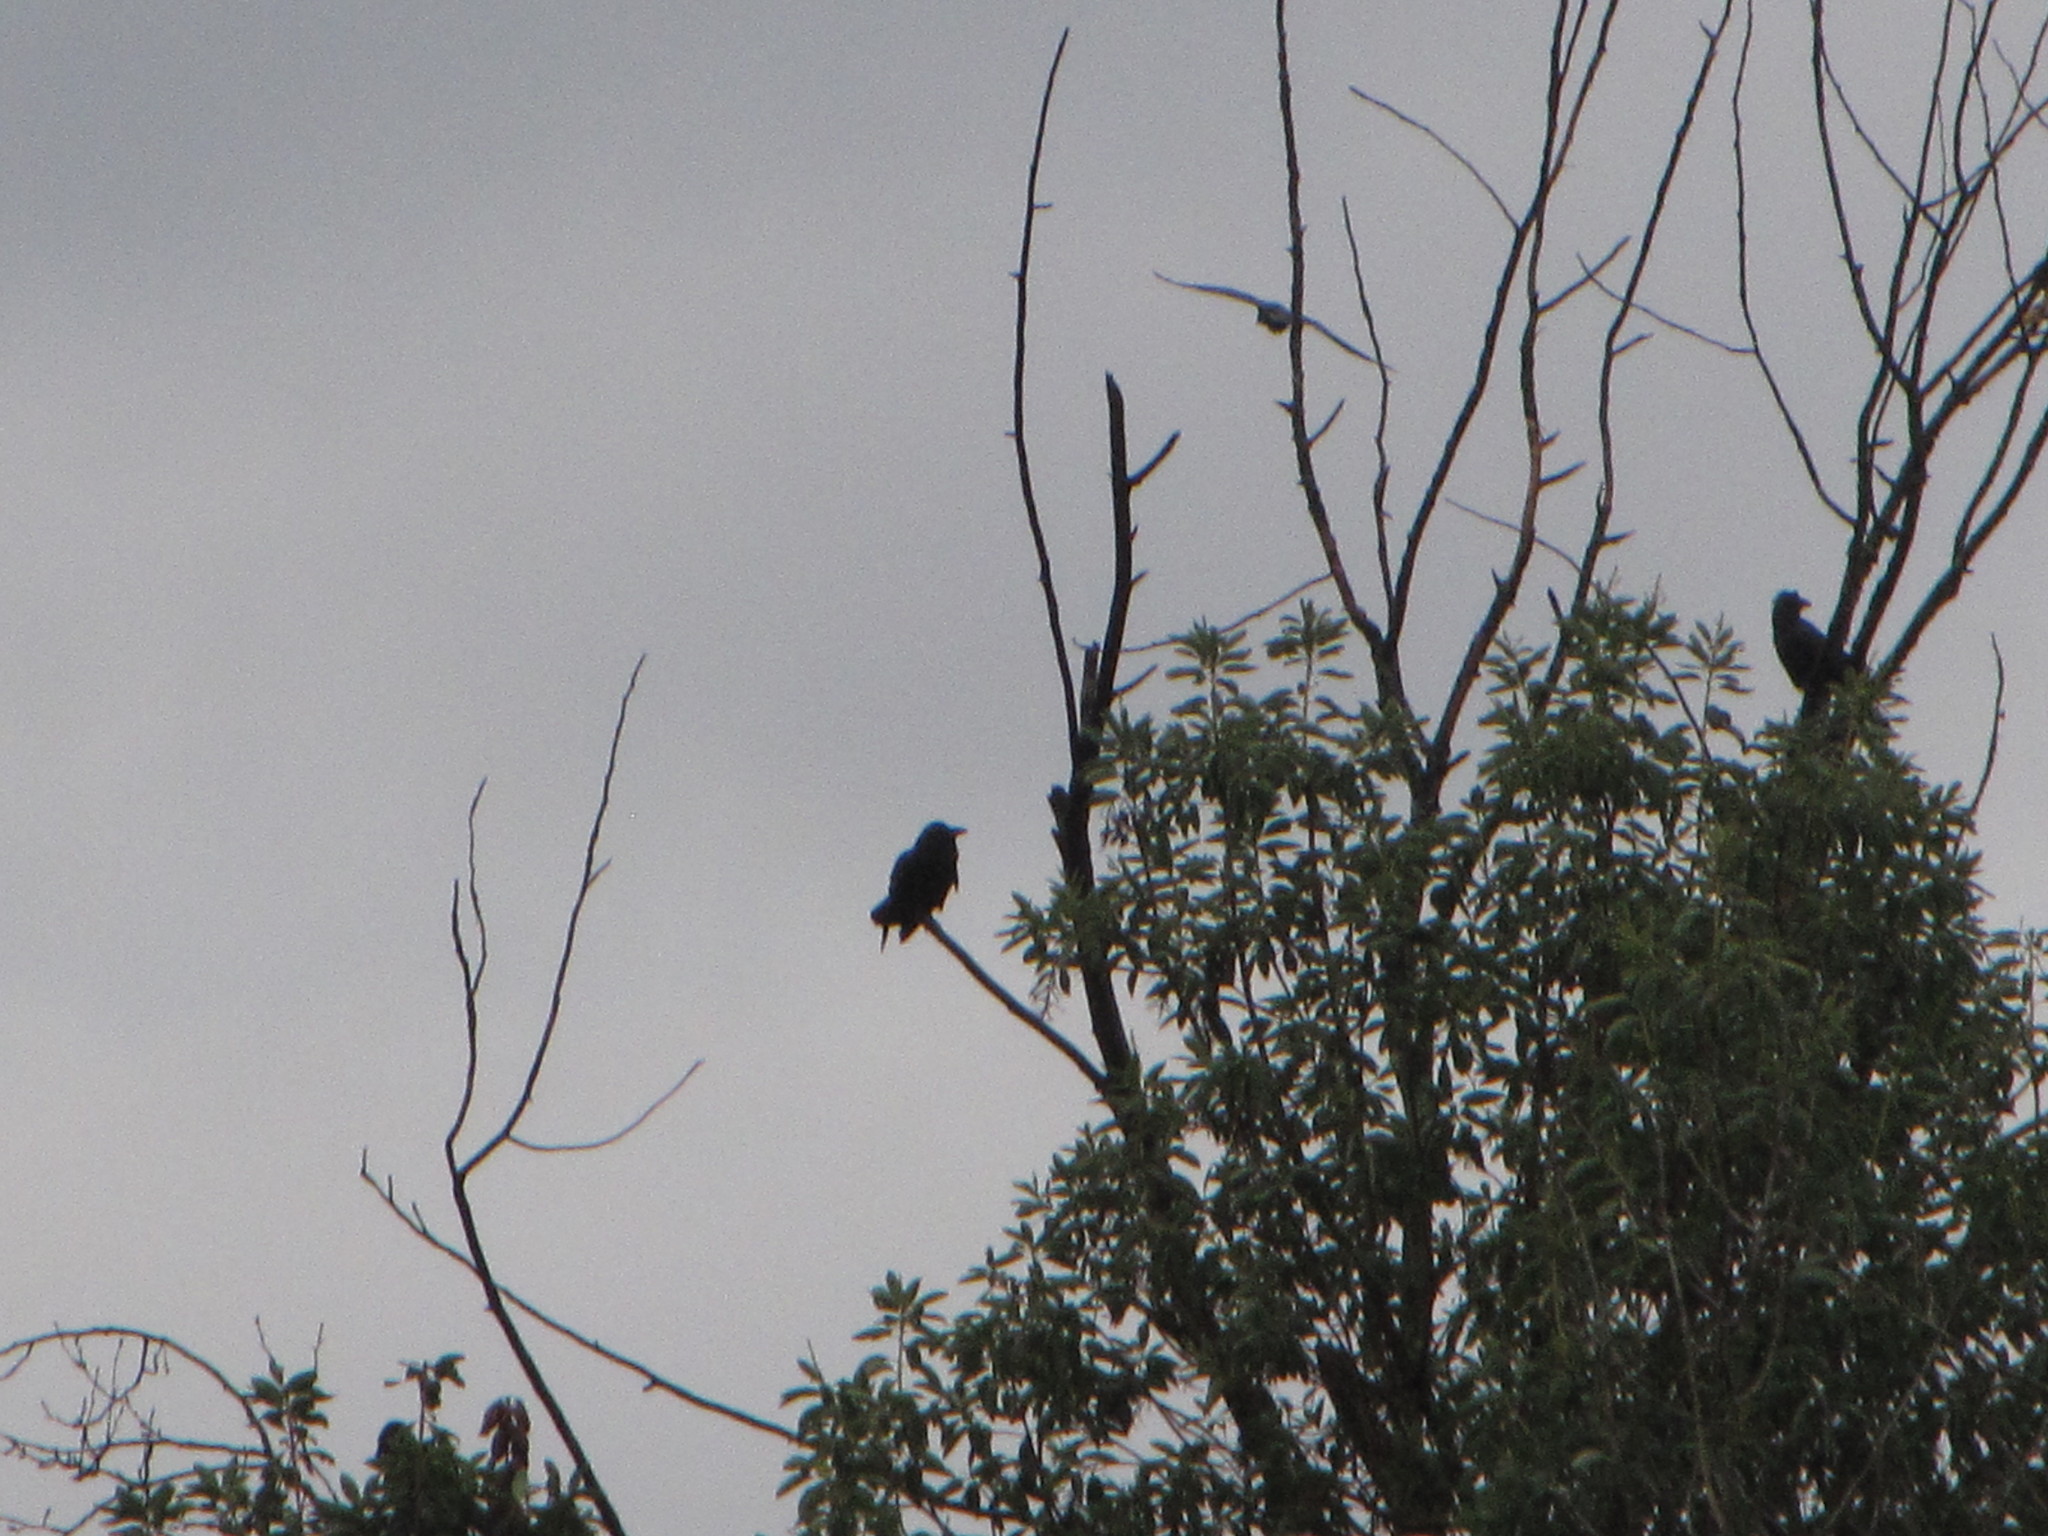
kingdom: Animalia
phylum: Chordata
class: Aves
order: Passeriformes
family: Corvidae
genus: Corvus
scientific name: Corvus corax
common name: Common raven
